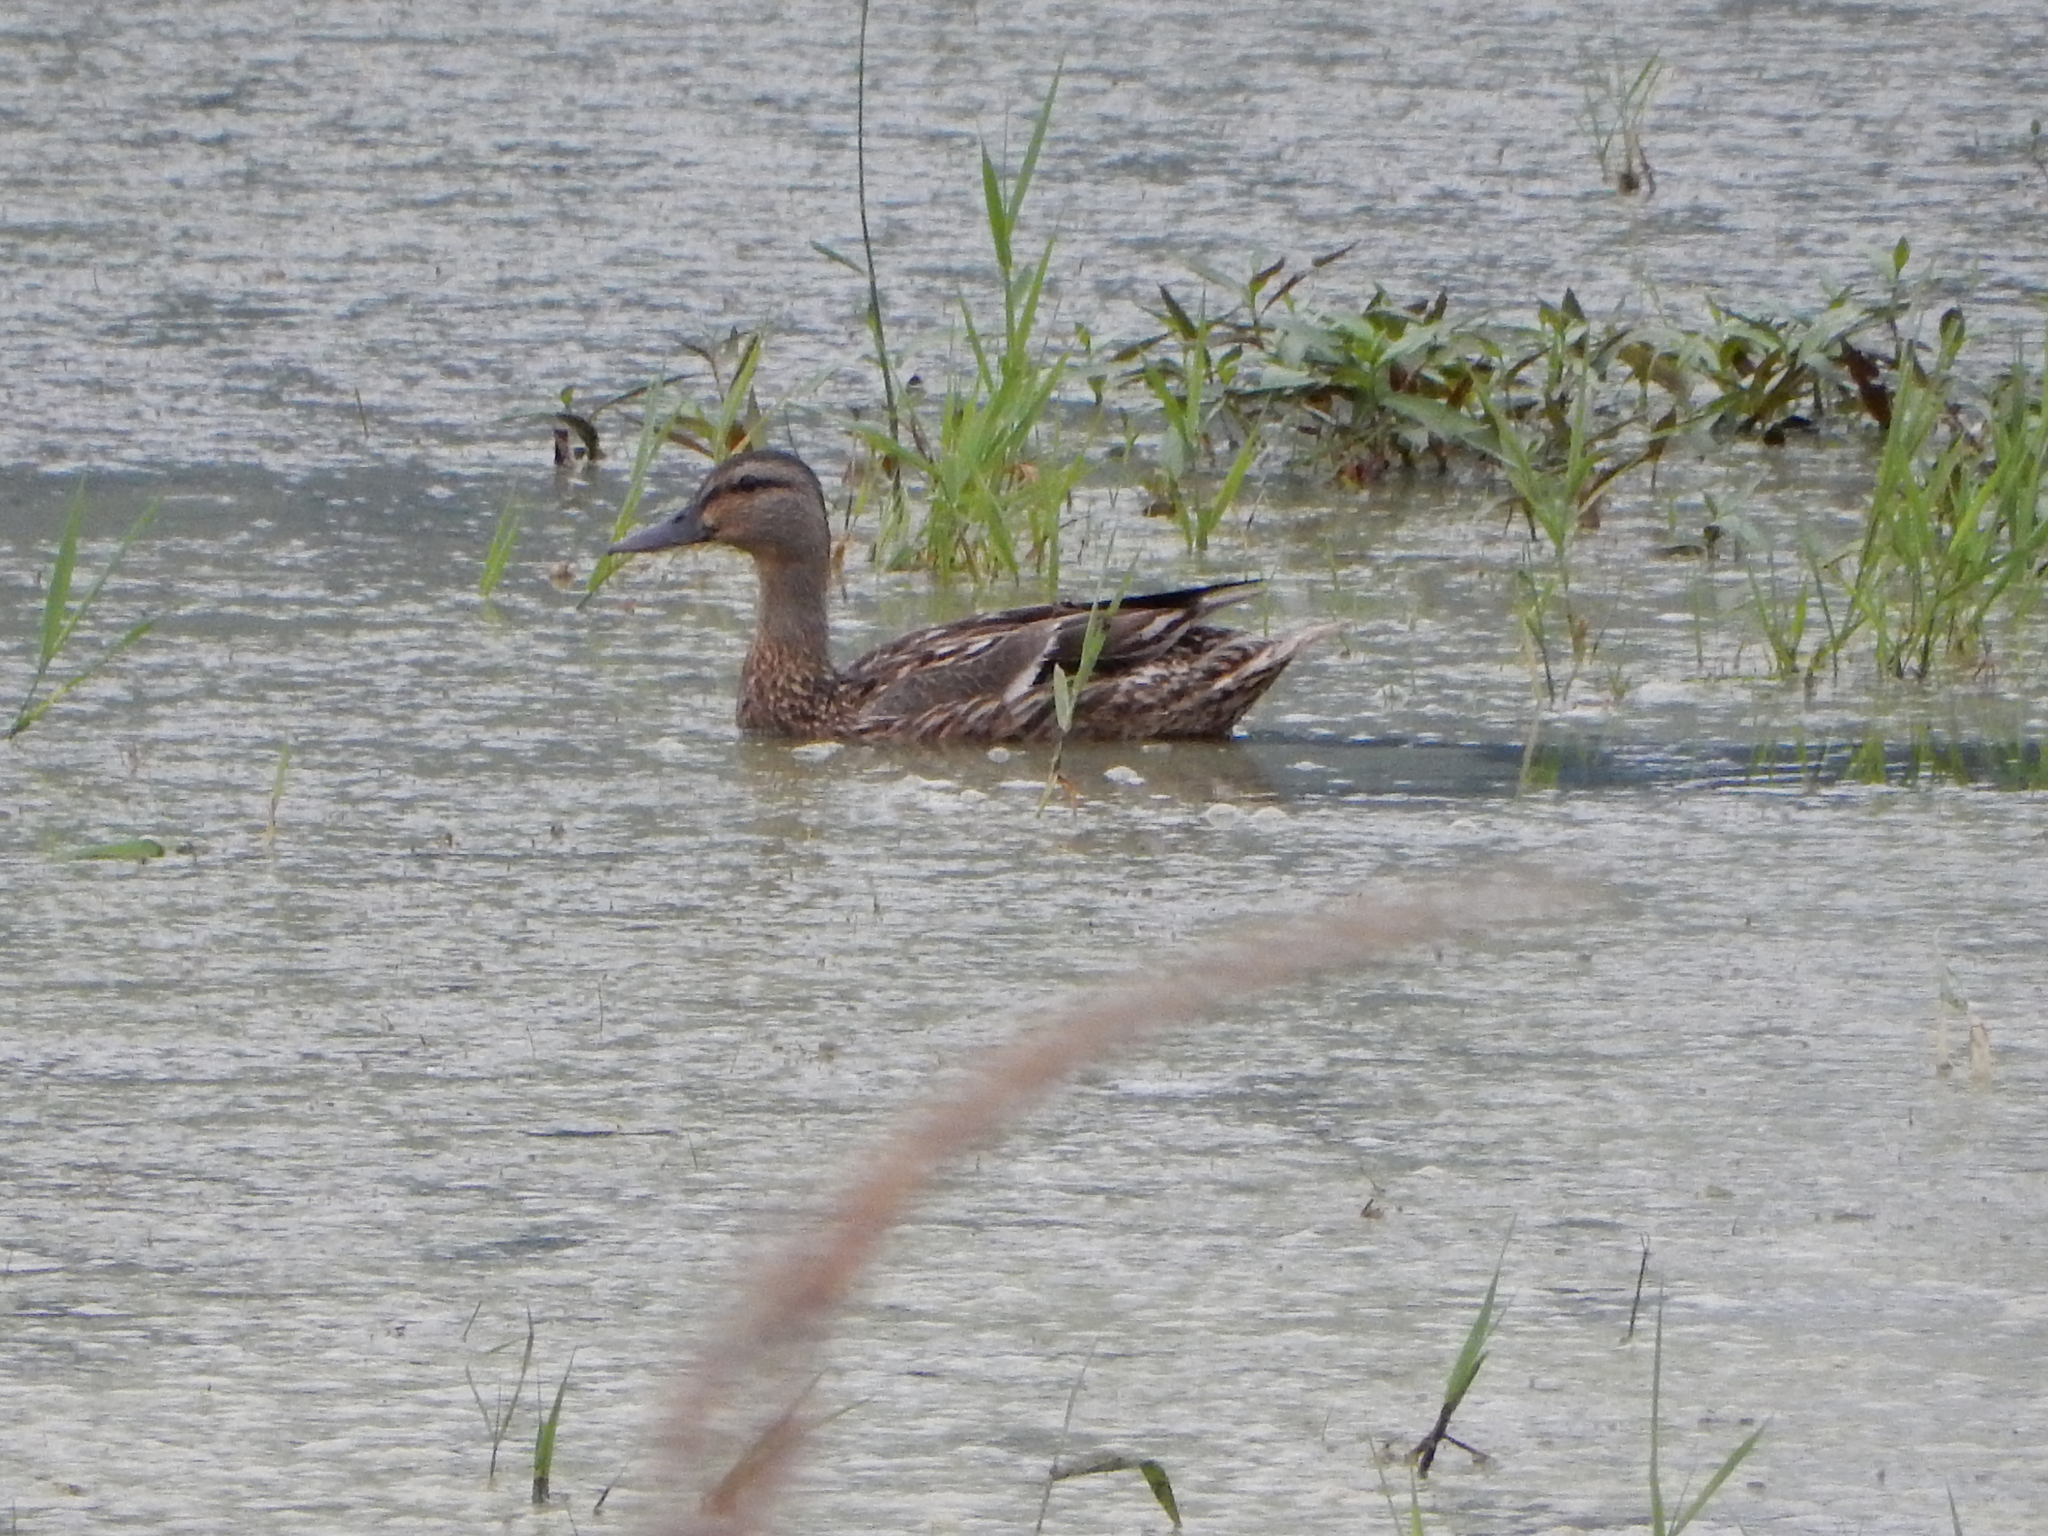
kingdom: Animalia
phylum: Chordata
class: Aves
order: Anseriformes
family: Anatidae
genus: Anas
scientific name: Anas platyrhynchos
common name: Mallard
